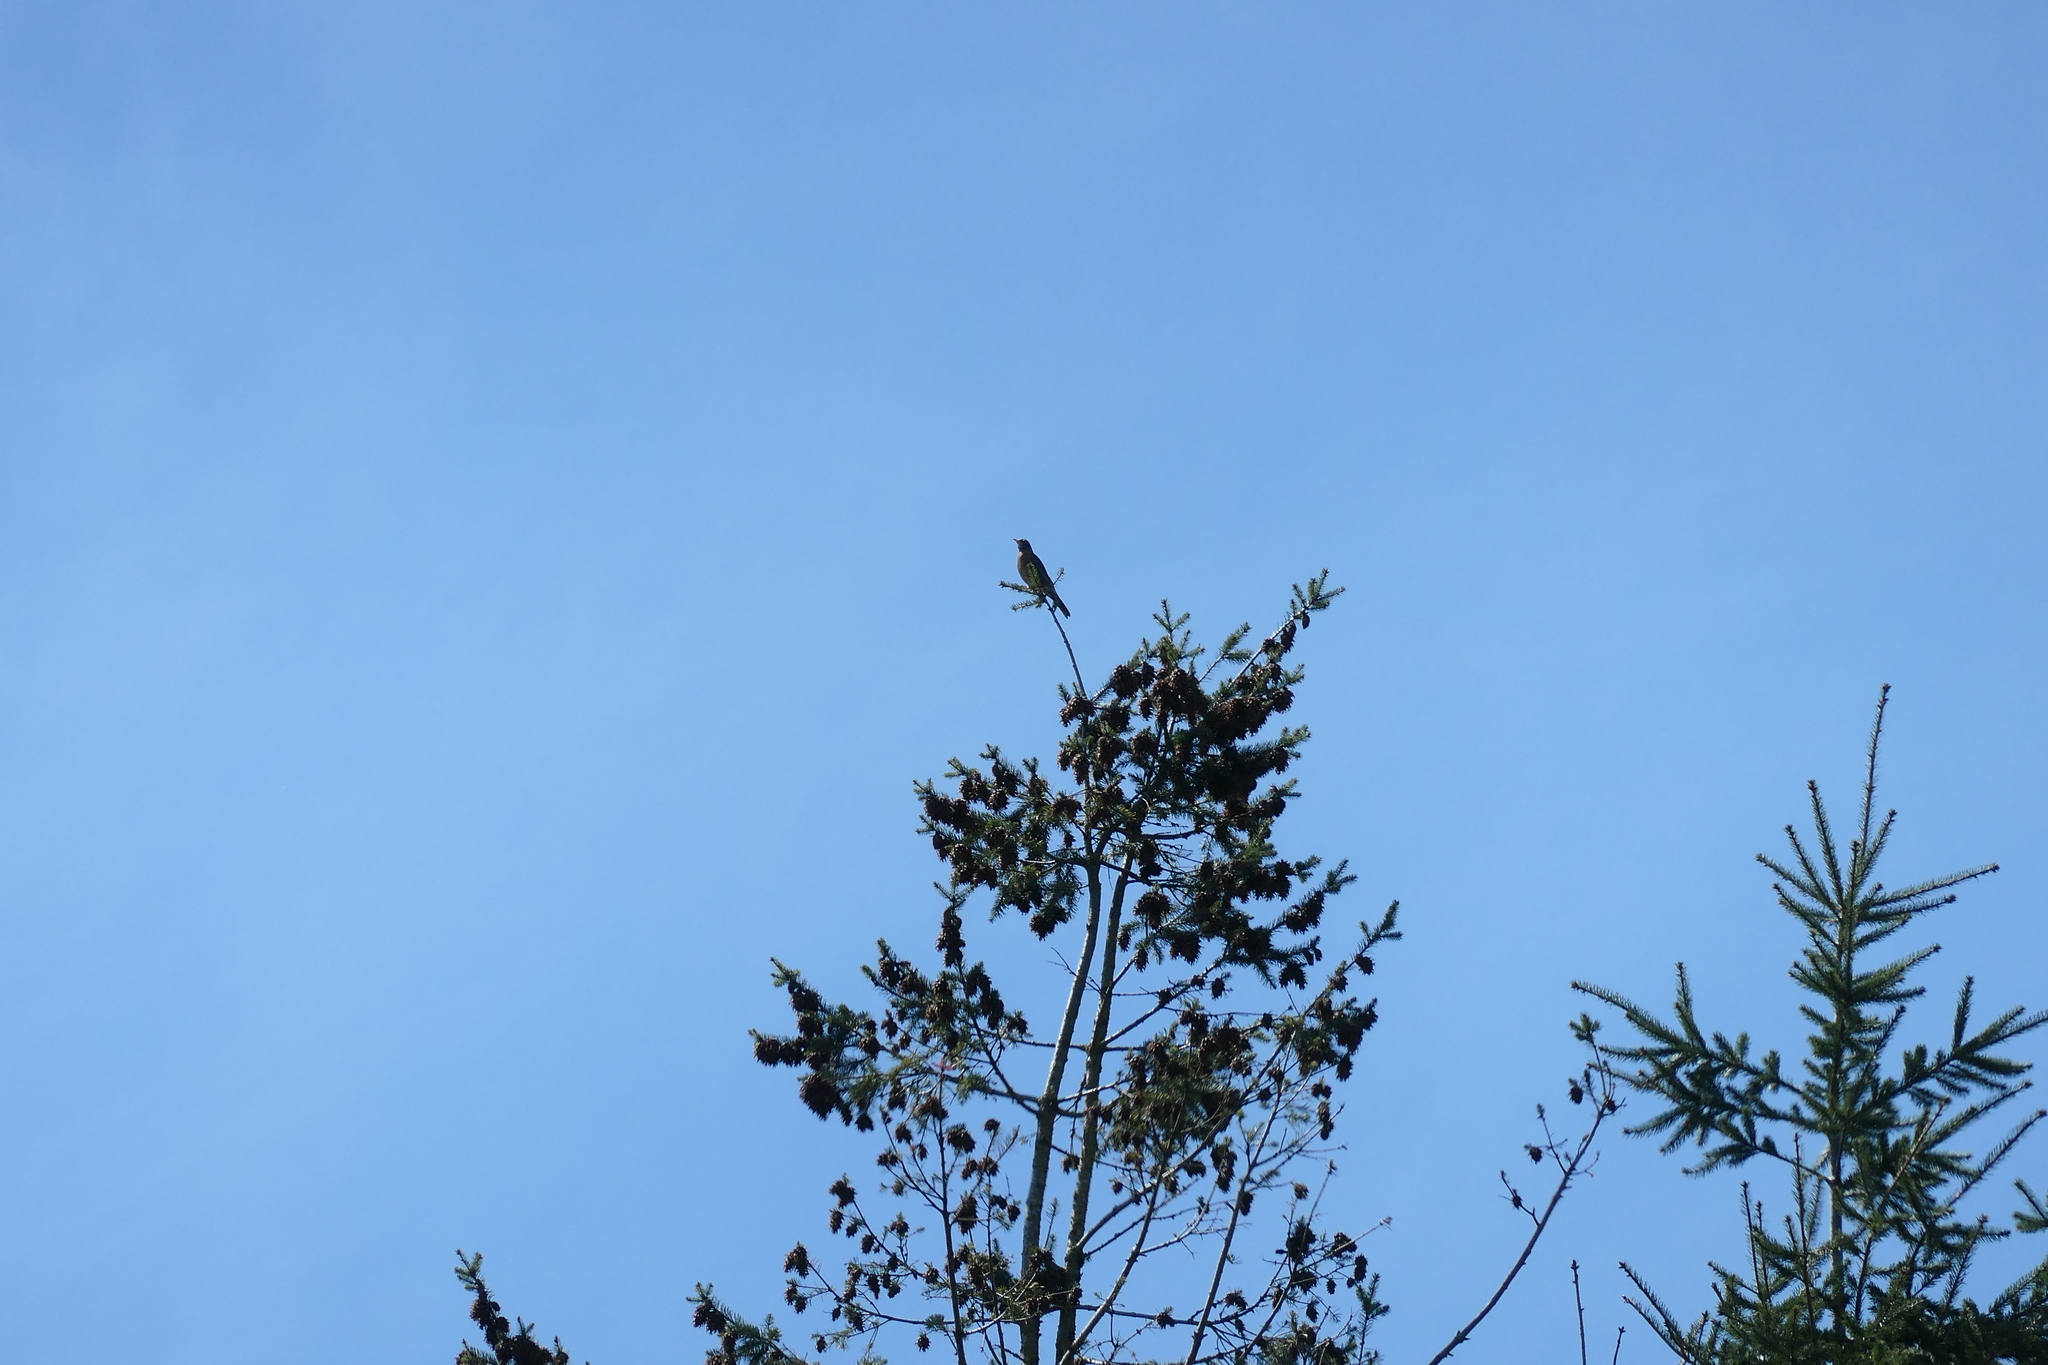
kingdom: Animalia
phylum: Chordata
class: Aves
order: Passeriformes
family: Turdidae
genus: Turdus
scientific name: Turdus migratorius
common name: American robin
